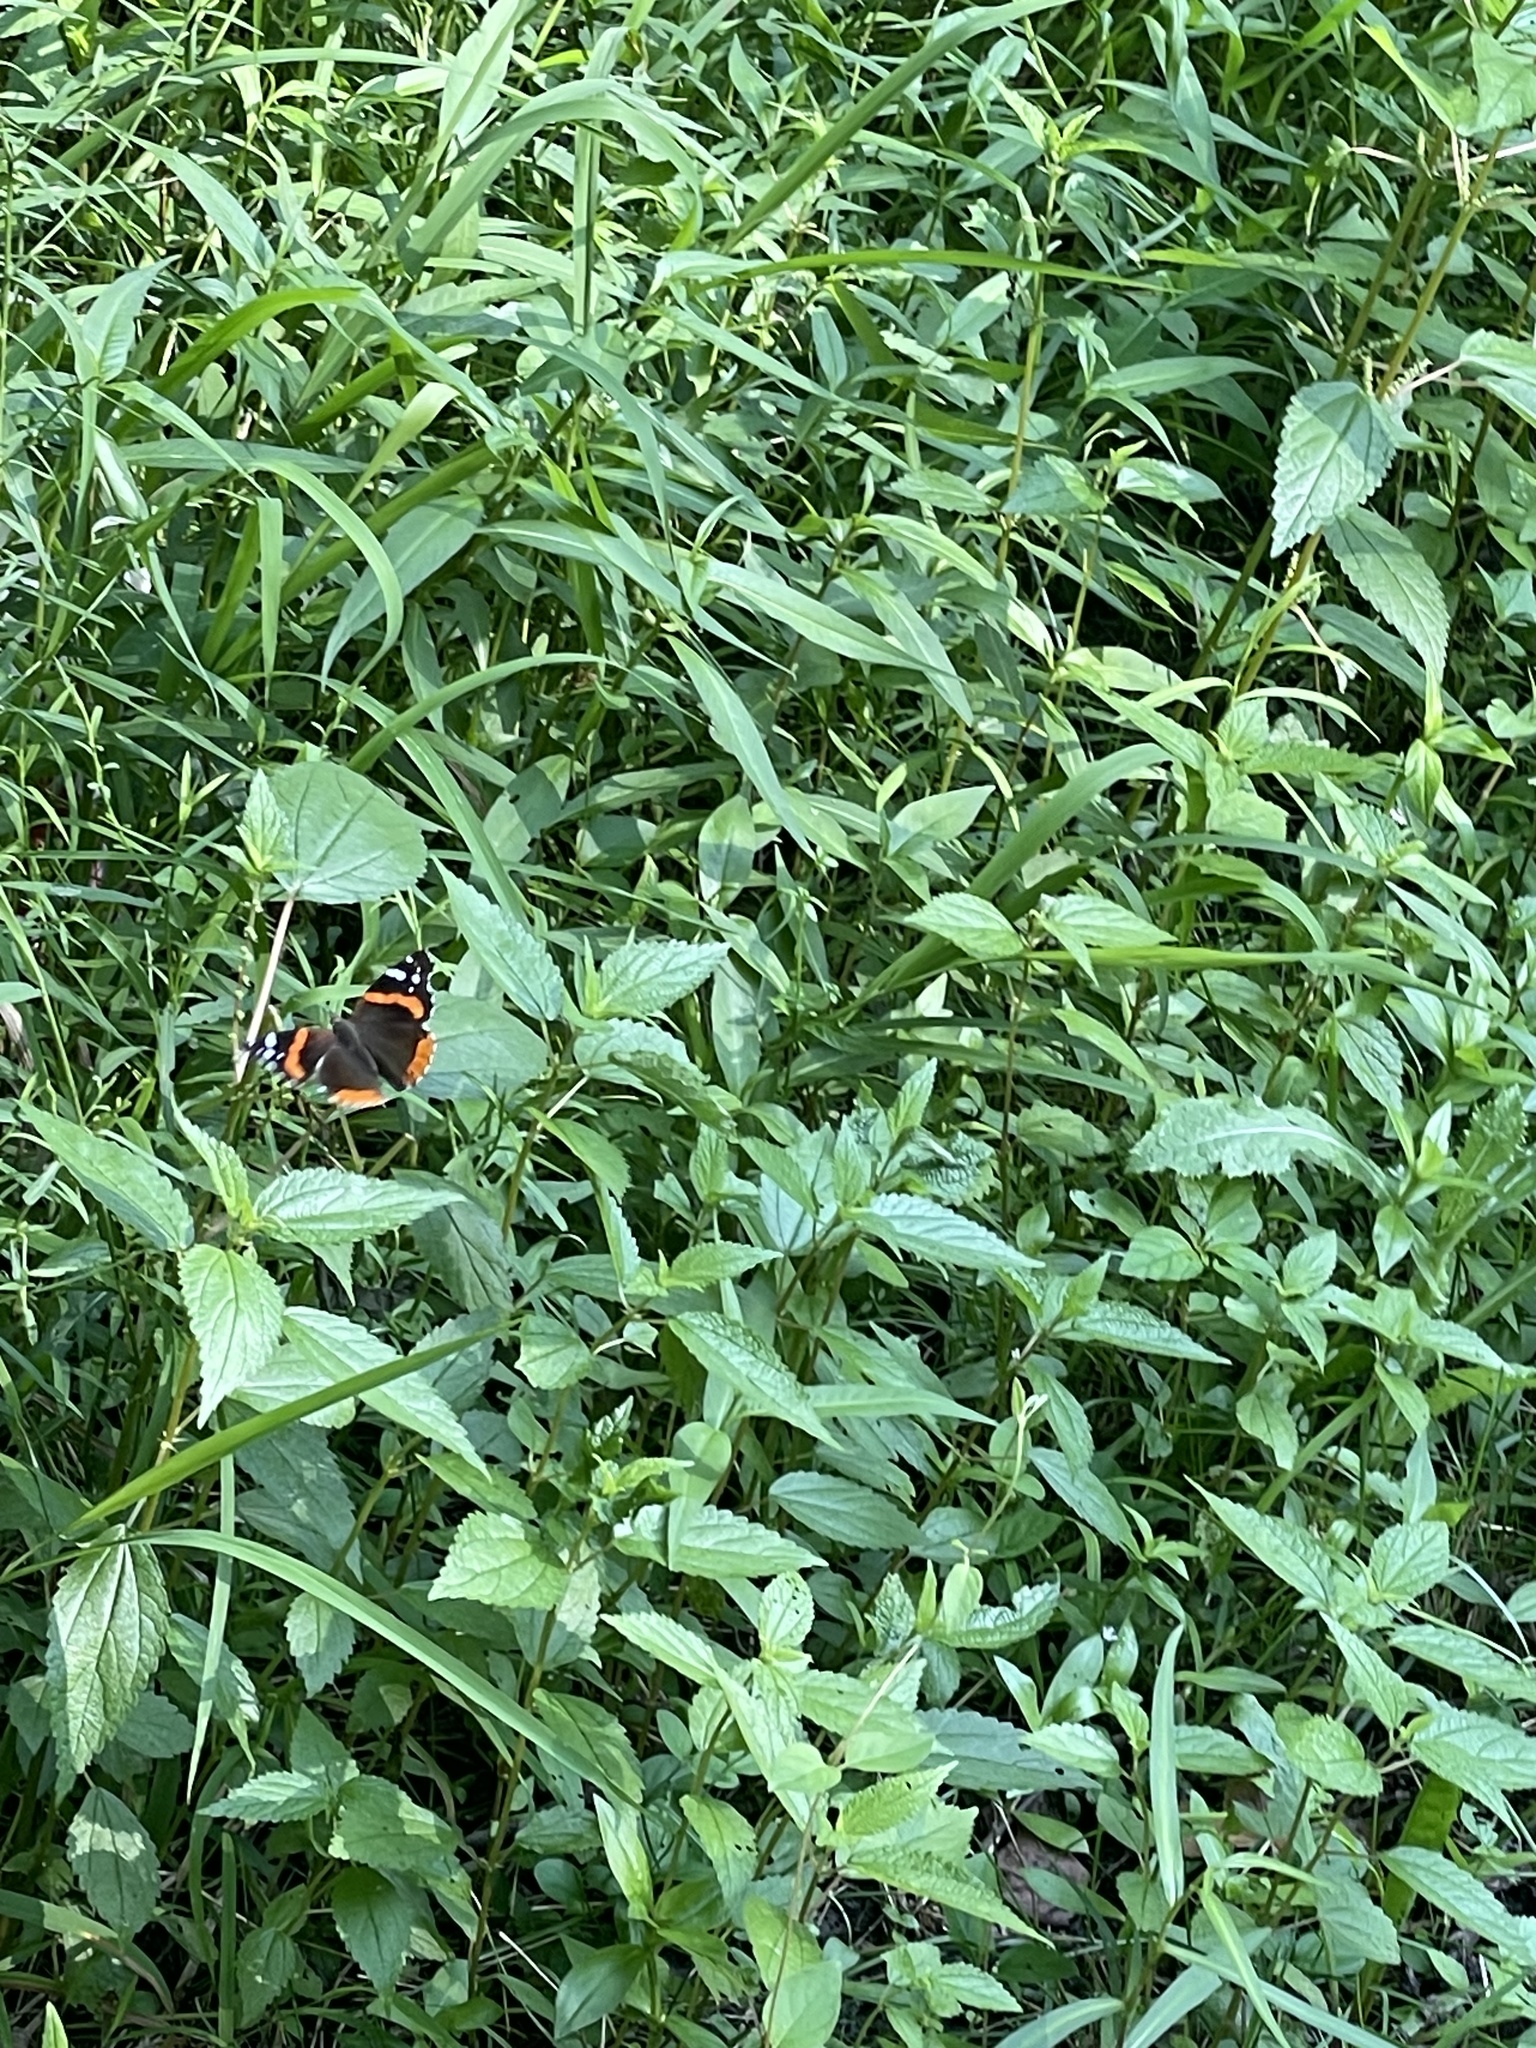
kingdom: Animalia
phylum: Arthropoda
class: Insecta
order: Lepidoptera
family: Nymphalidae
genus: Vanessa
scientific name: Vanessa atalanta
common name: Red admiral
